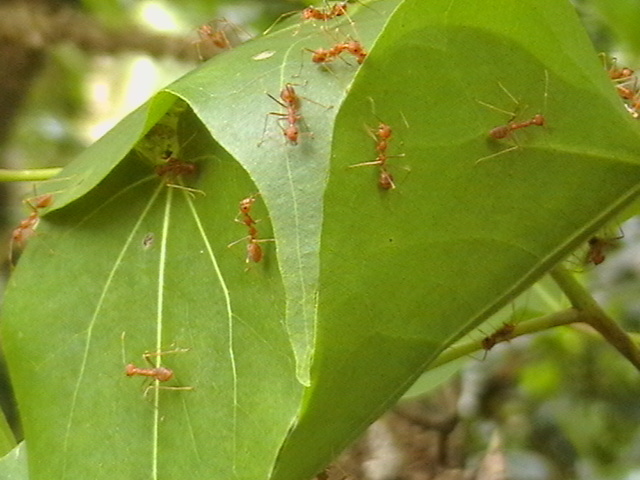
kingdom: Animalia
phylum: Arthropoda
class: Insecta
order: Hymenoptera
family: Formicidae
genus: Oecophylla
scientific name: Oecophylla smaragdina
